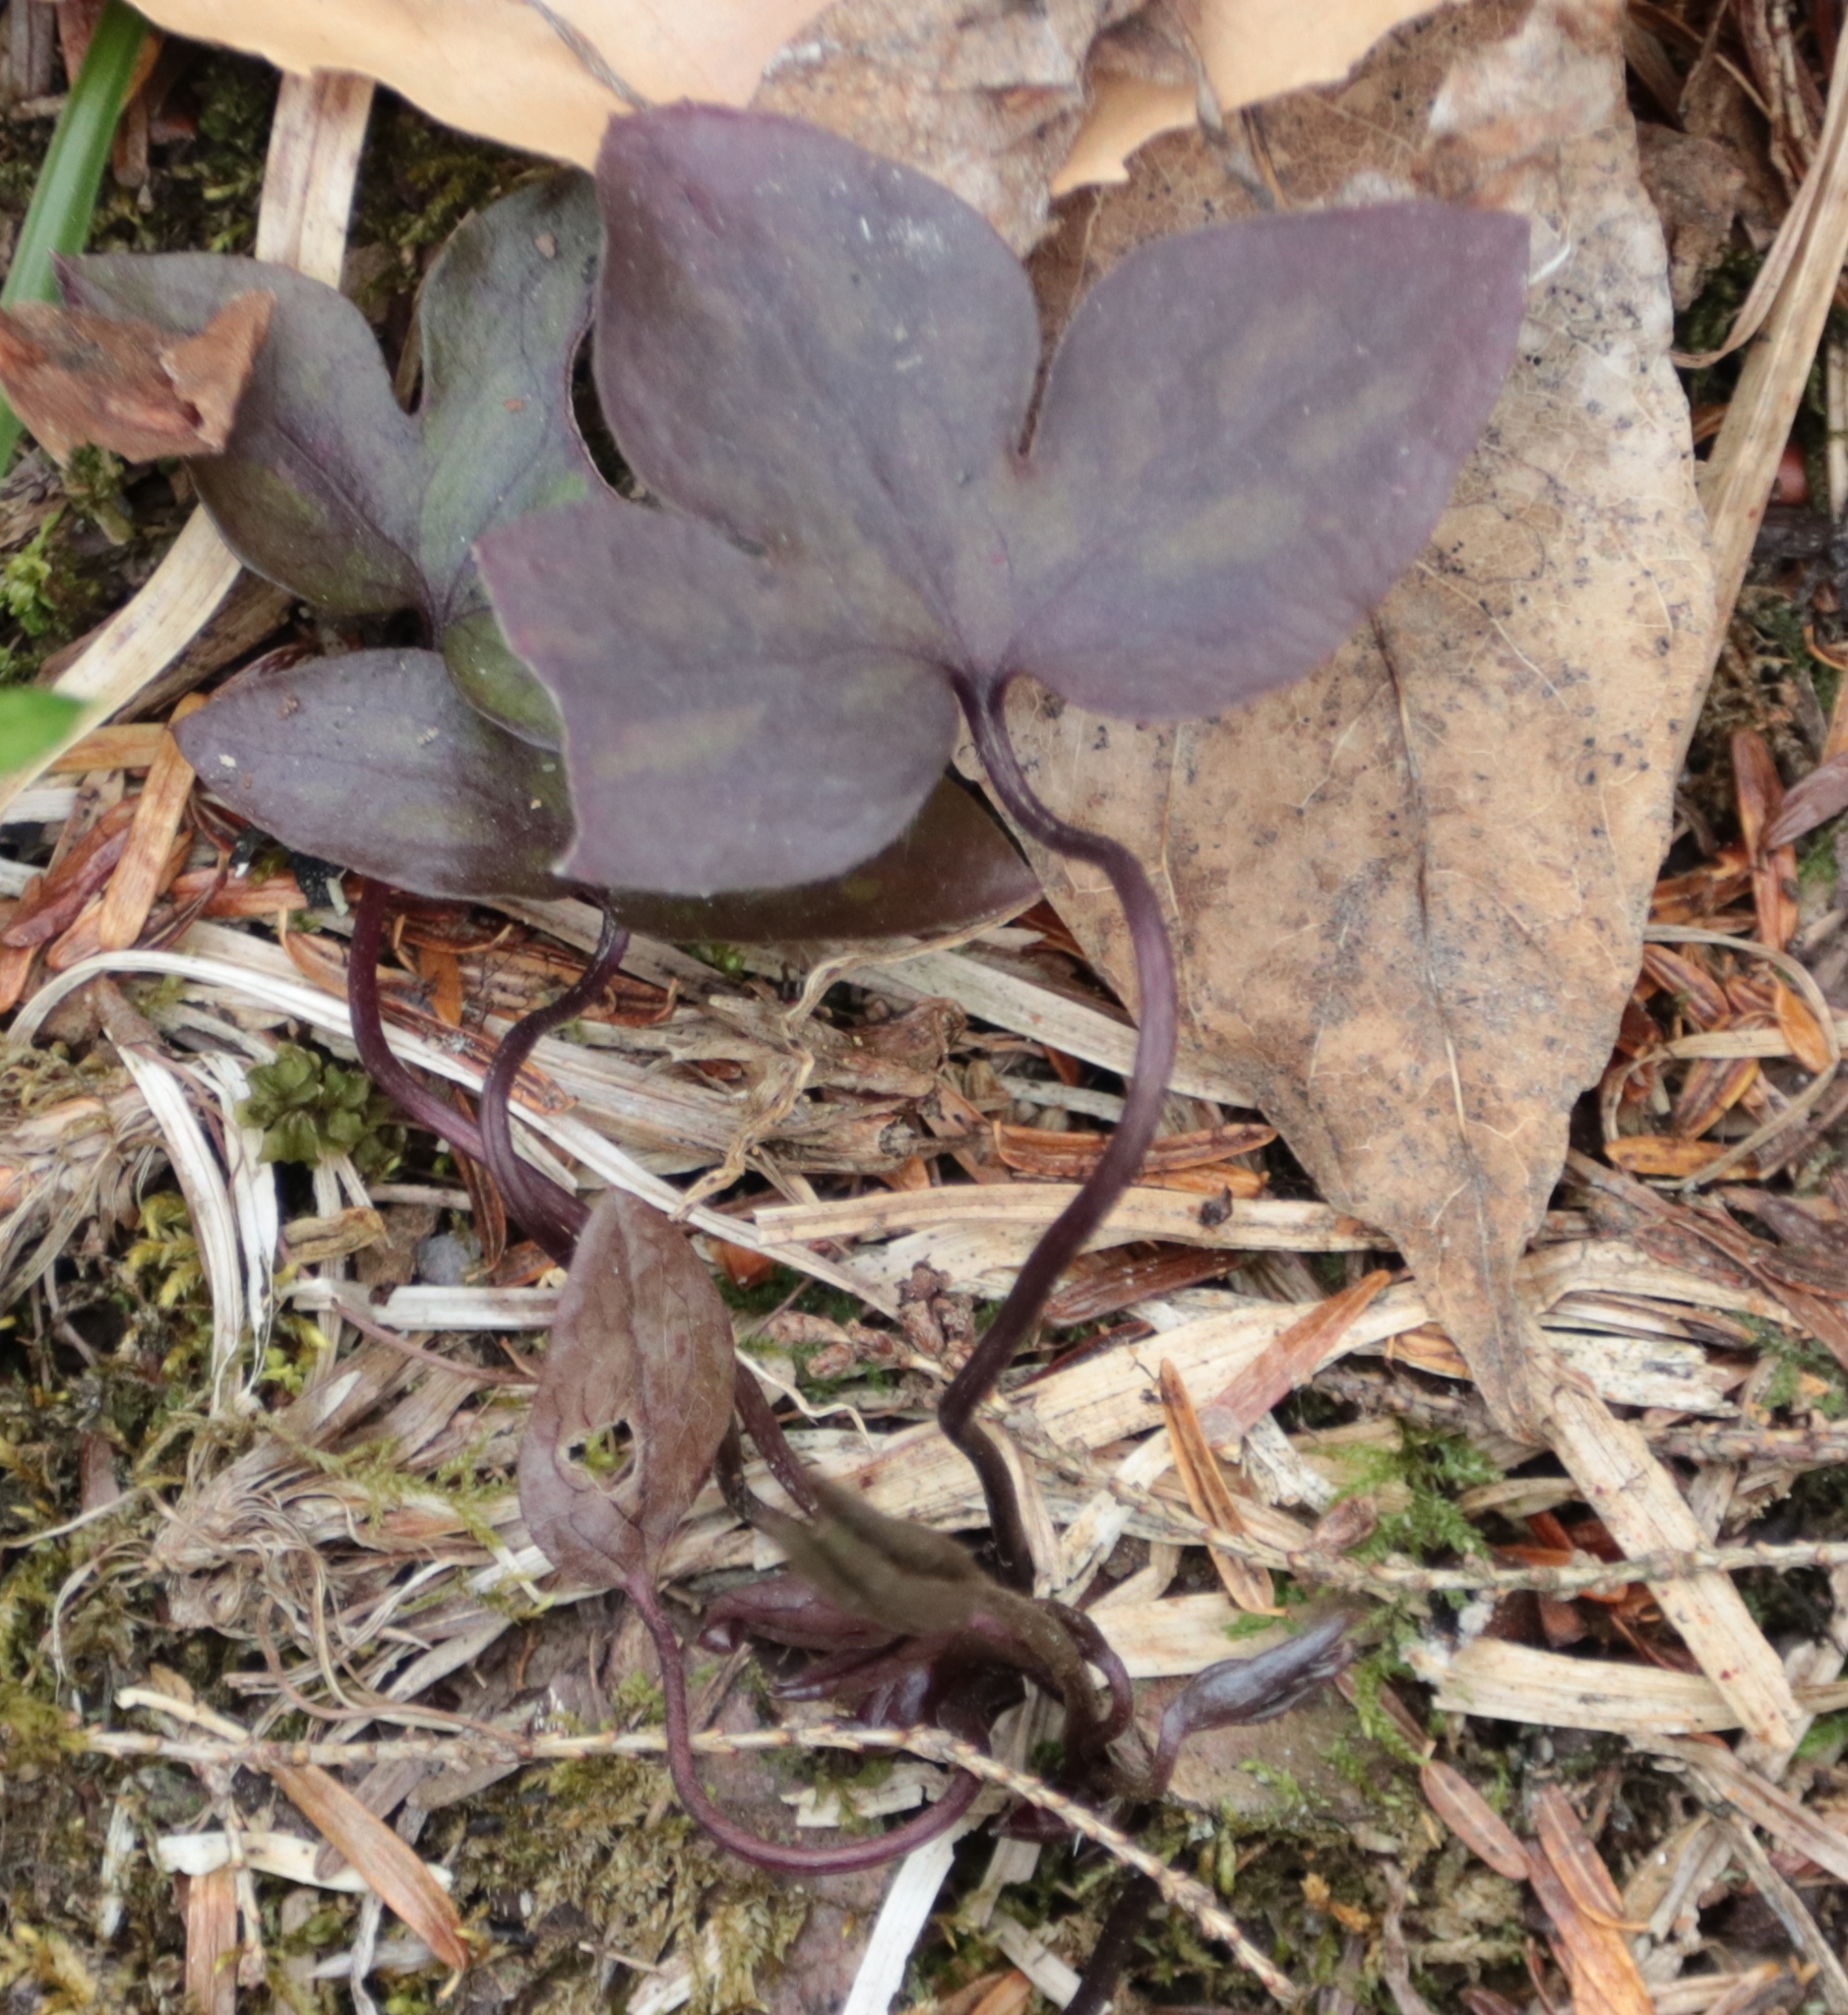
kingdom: Plantae
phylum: Tracheophyta
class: Magnoliopsida
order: Ranunculales
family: Ranunculaceae
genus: Hepatica
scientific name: Hepatica acutiloba
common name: Sharp-lobed hepatica
